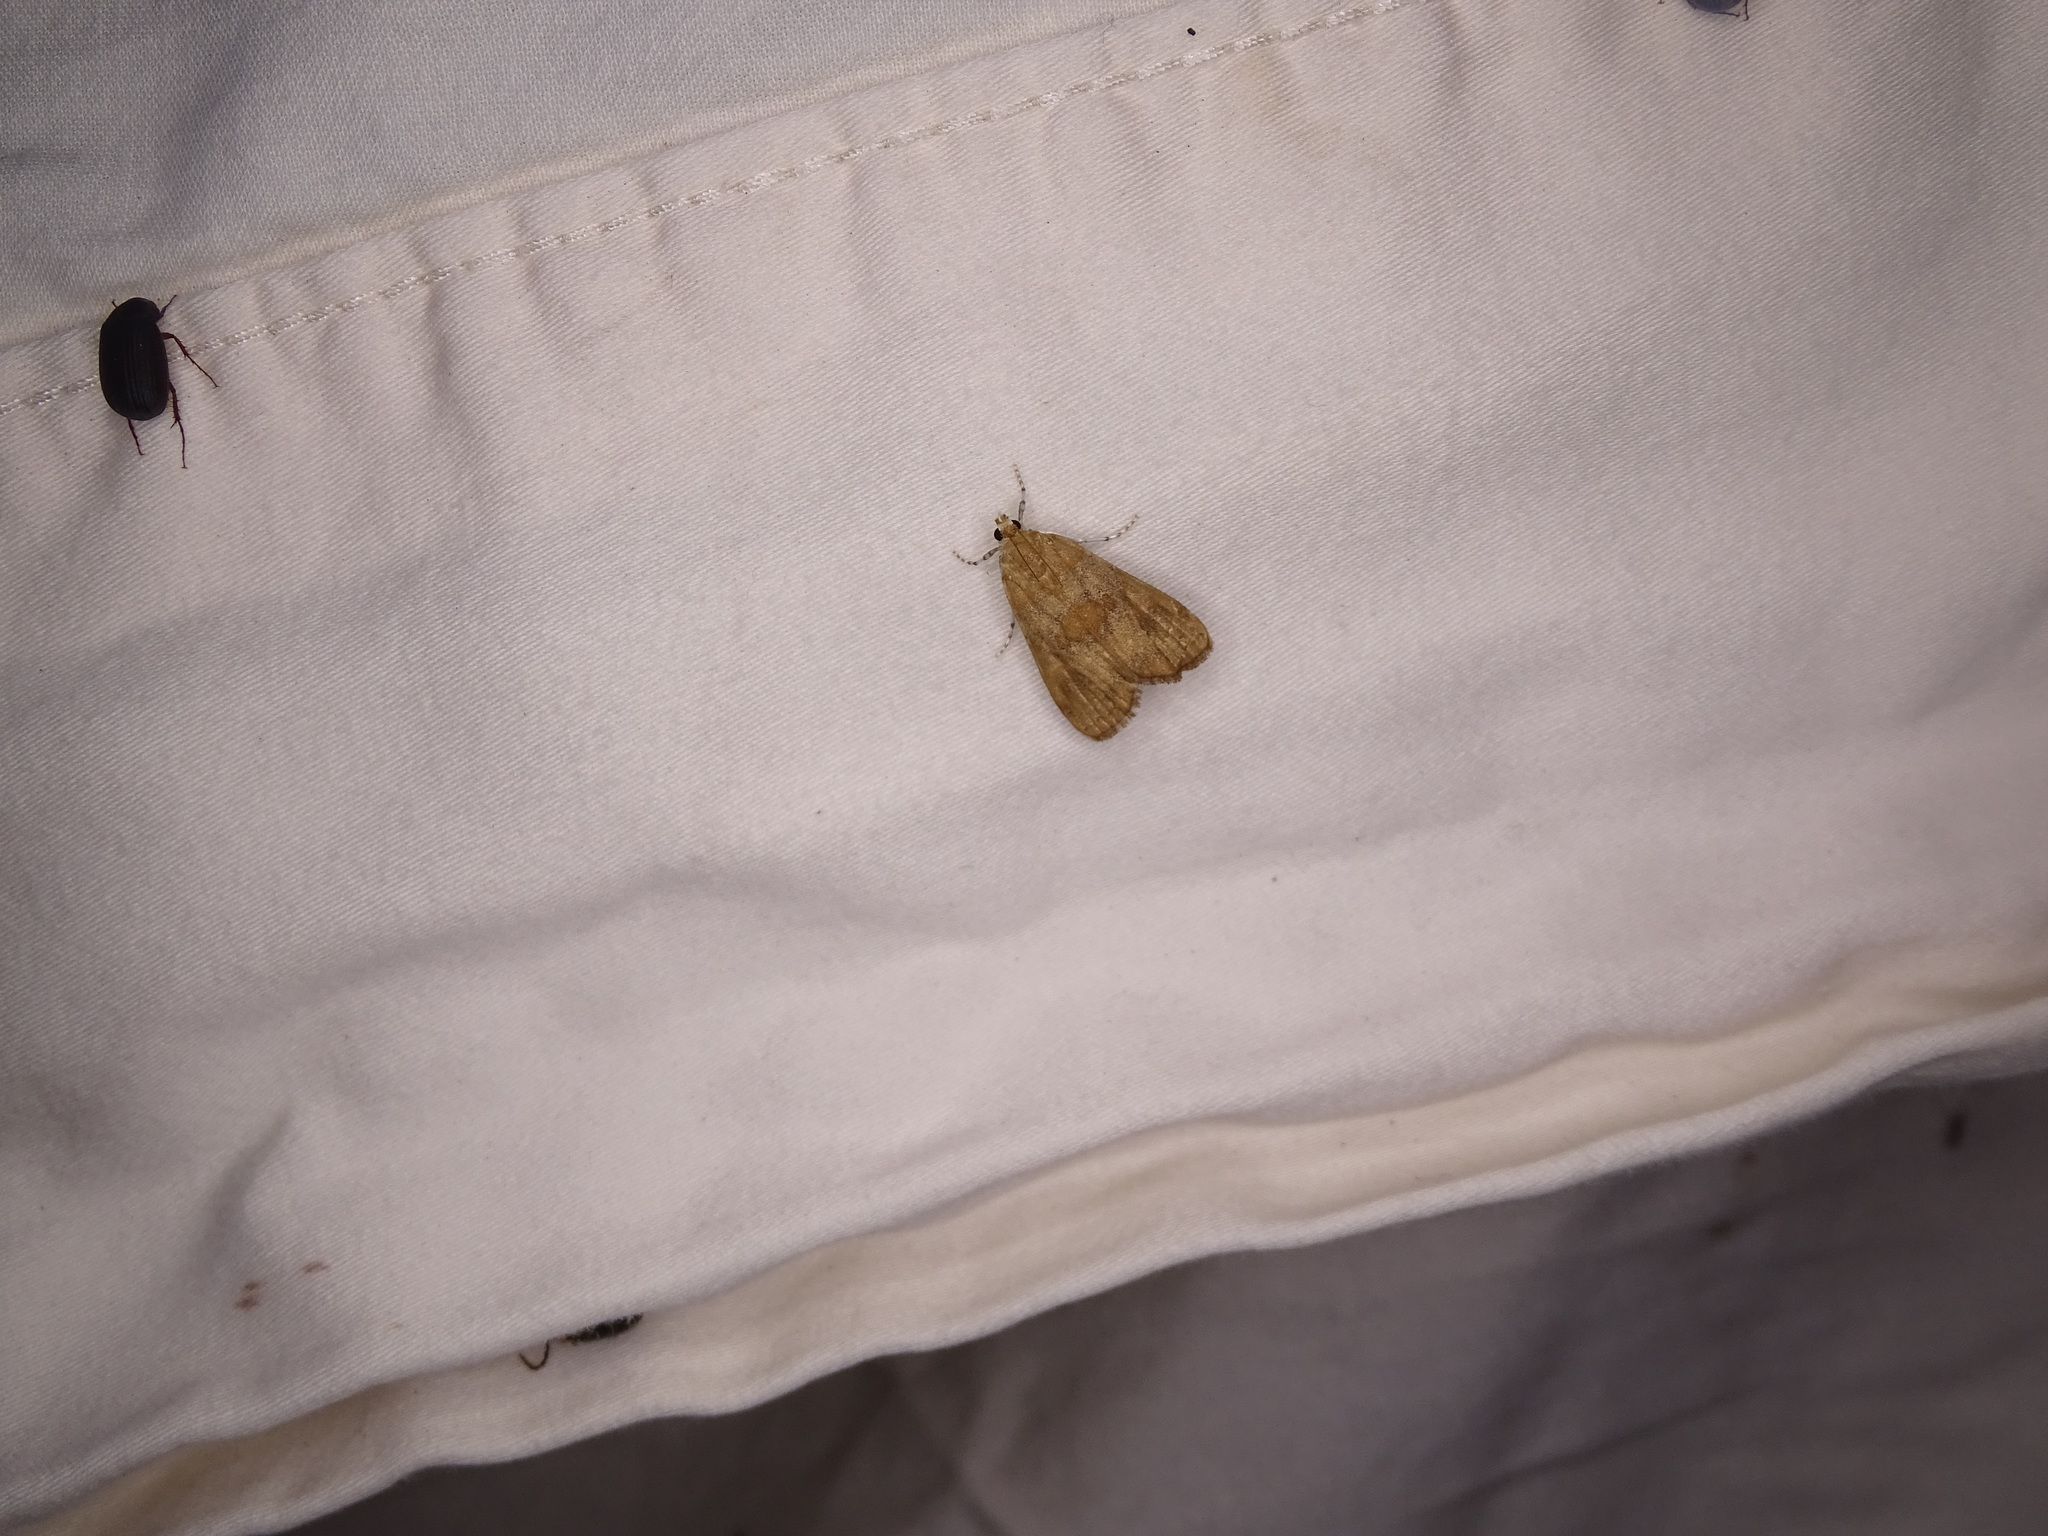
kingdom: Animalia
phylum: Arthropoda
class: Insecta
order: Lepidoptera
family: Crambidae
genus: Elophila
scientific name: Elophila gyralis
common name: Waterlily borer moth
